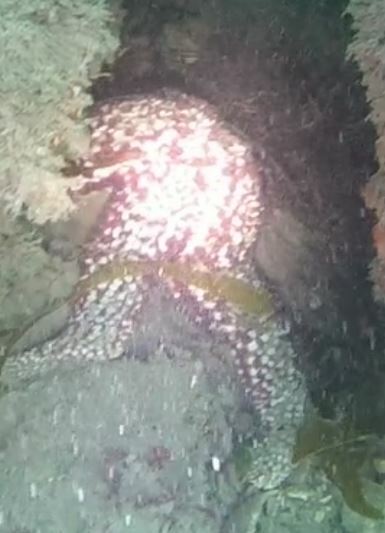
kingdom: Animalia
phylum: Echinodermata
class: Asteroidea
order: Forcipulatida
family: Asteriidae
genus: Pisaster
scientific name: Pisaster giganteus
